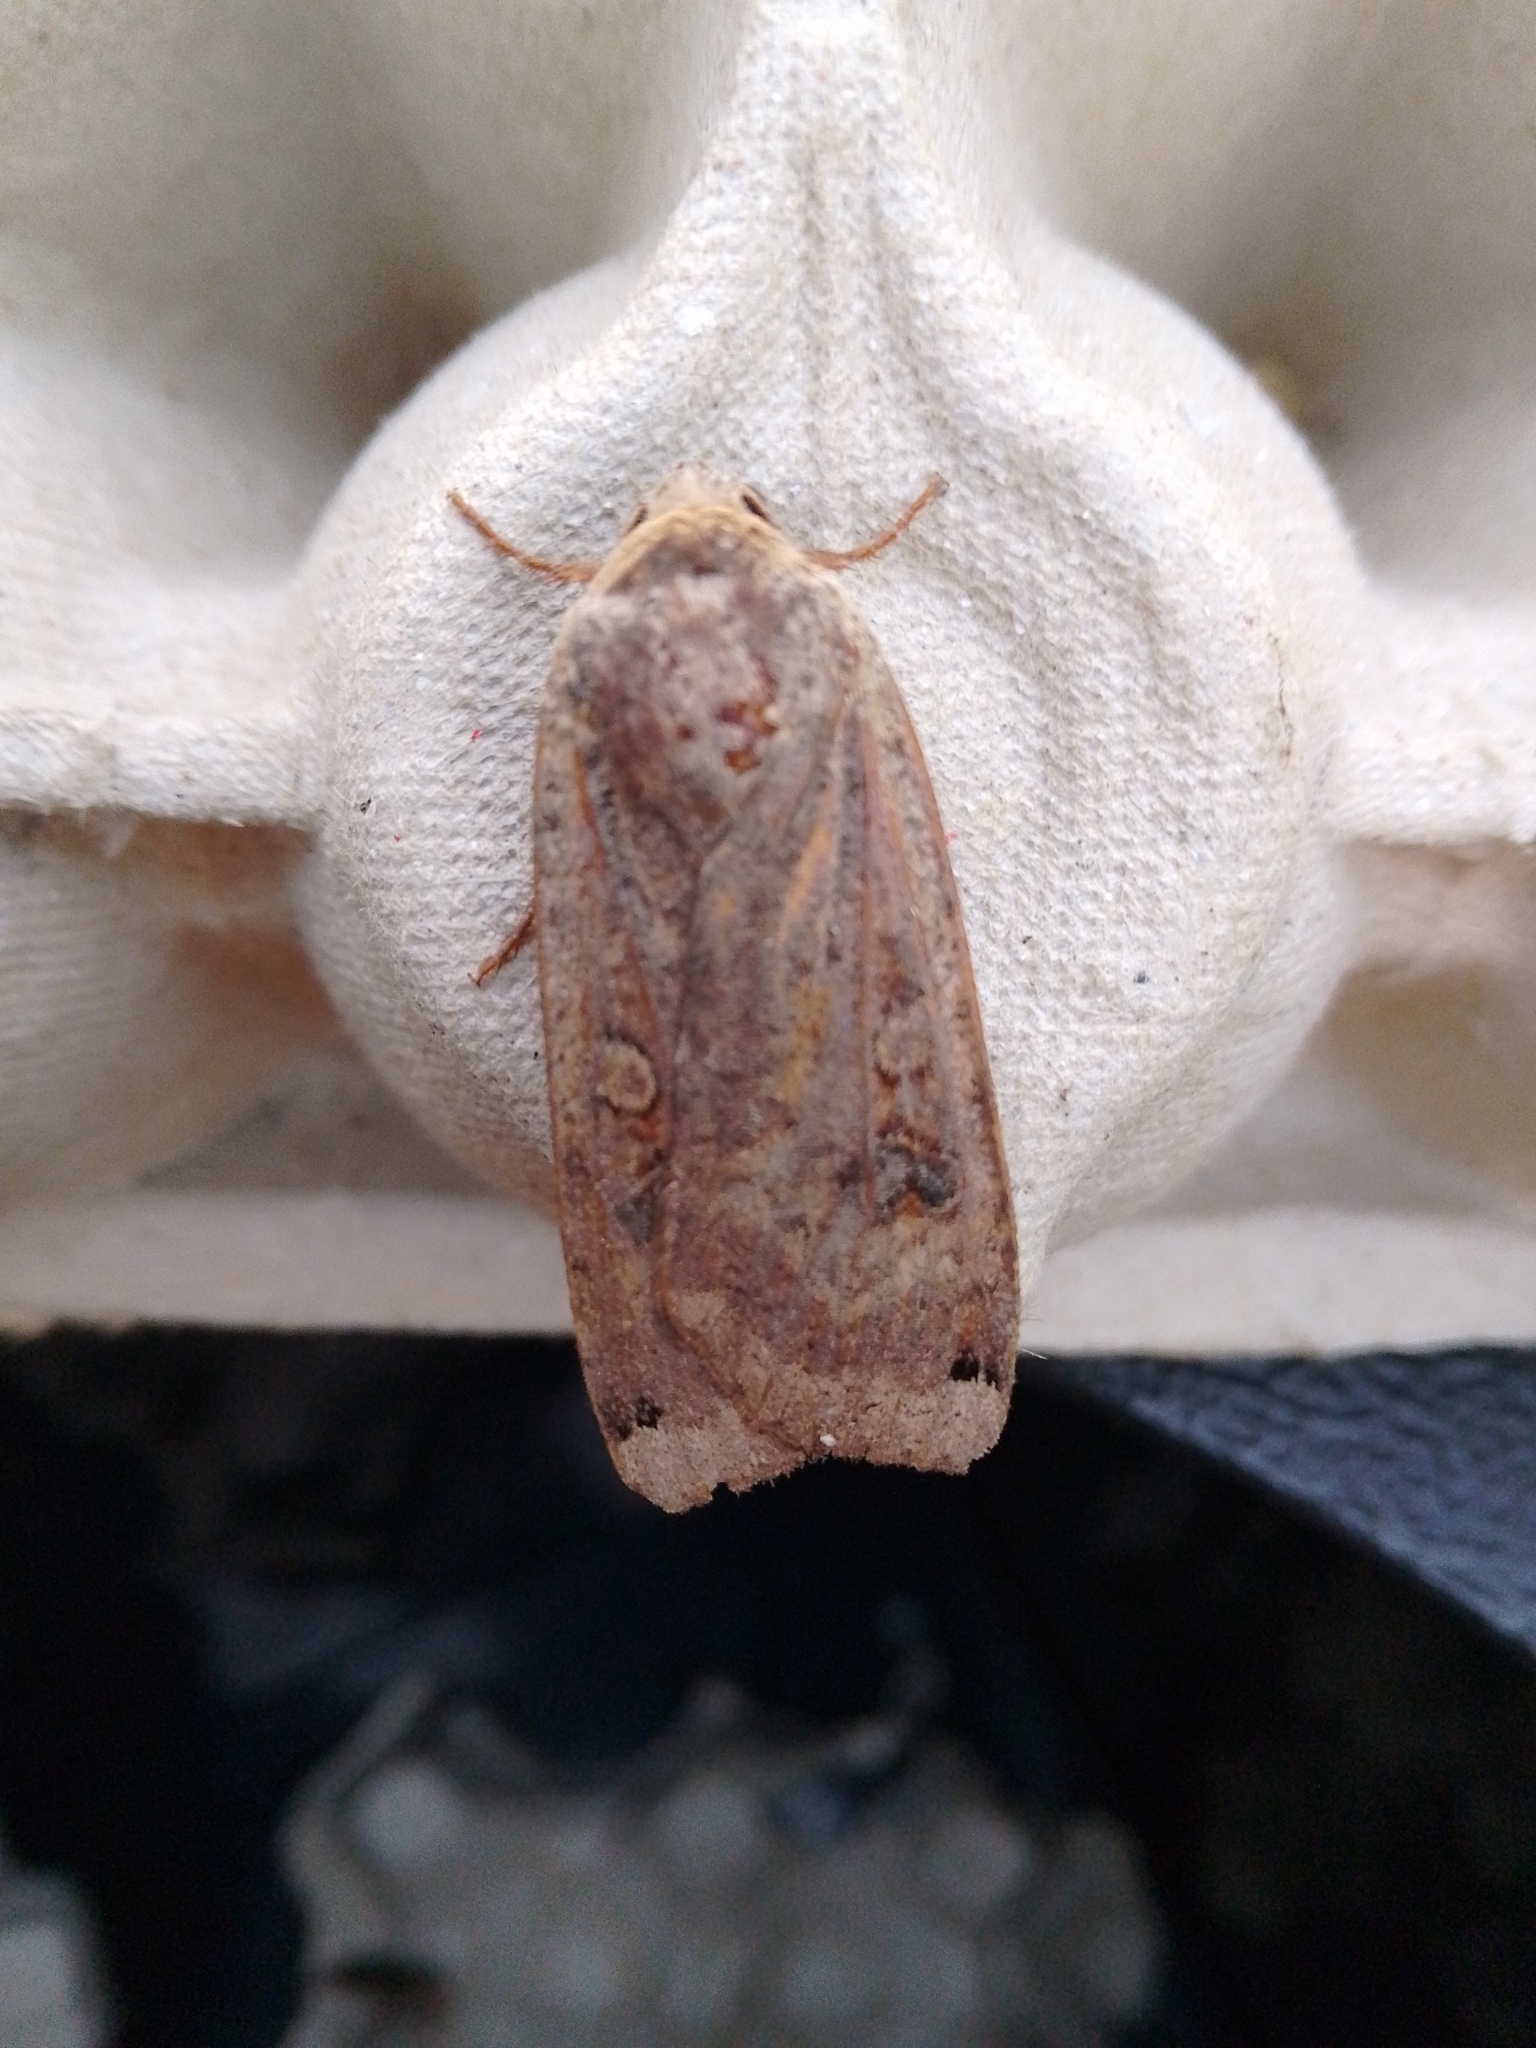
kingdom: Animalia
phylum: Arthropoda
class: Insecta
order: Lepidoptera
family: Noctuidae
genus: Noctua
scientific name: Noctua pronuba
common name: Large yellow underwing
